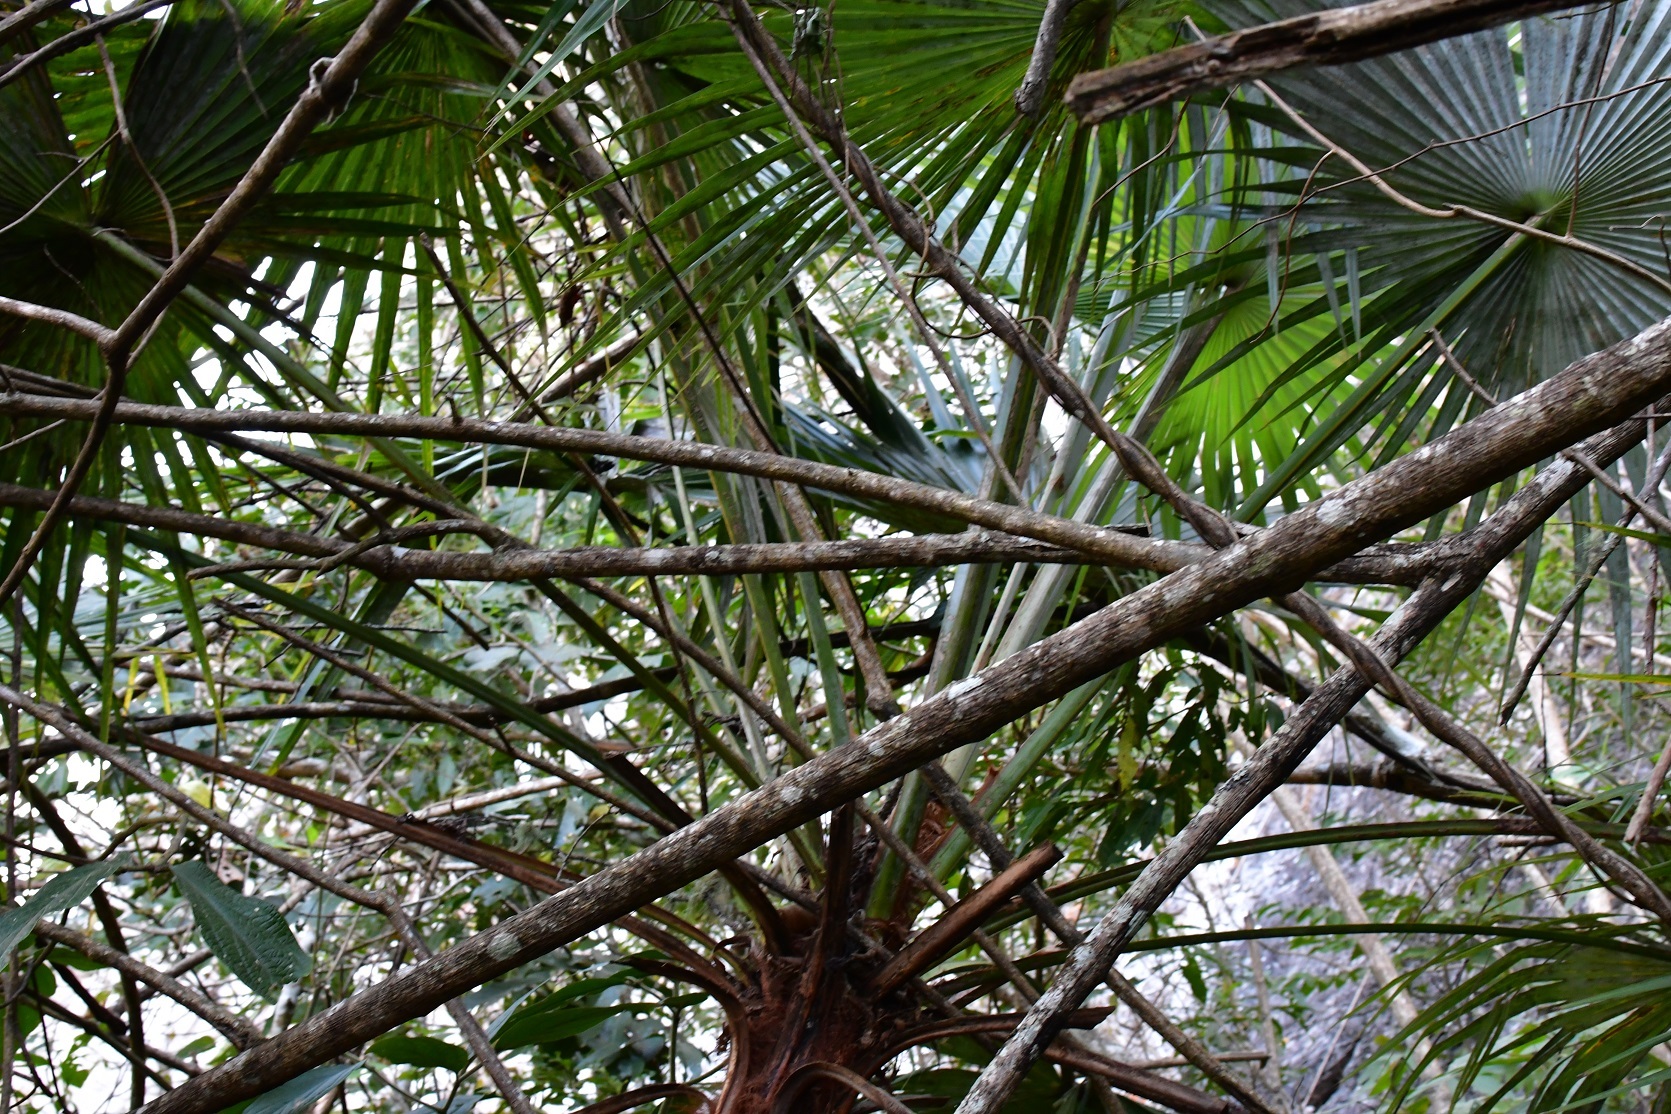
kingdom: Plantae
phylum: Tracheophyta
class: Liliopsida
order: Arecales
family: Arecaceae
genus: Brahea
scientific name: Brahea nitida
